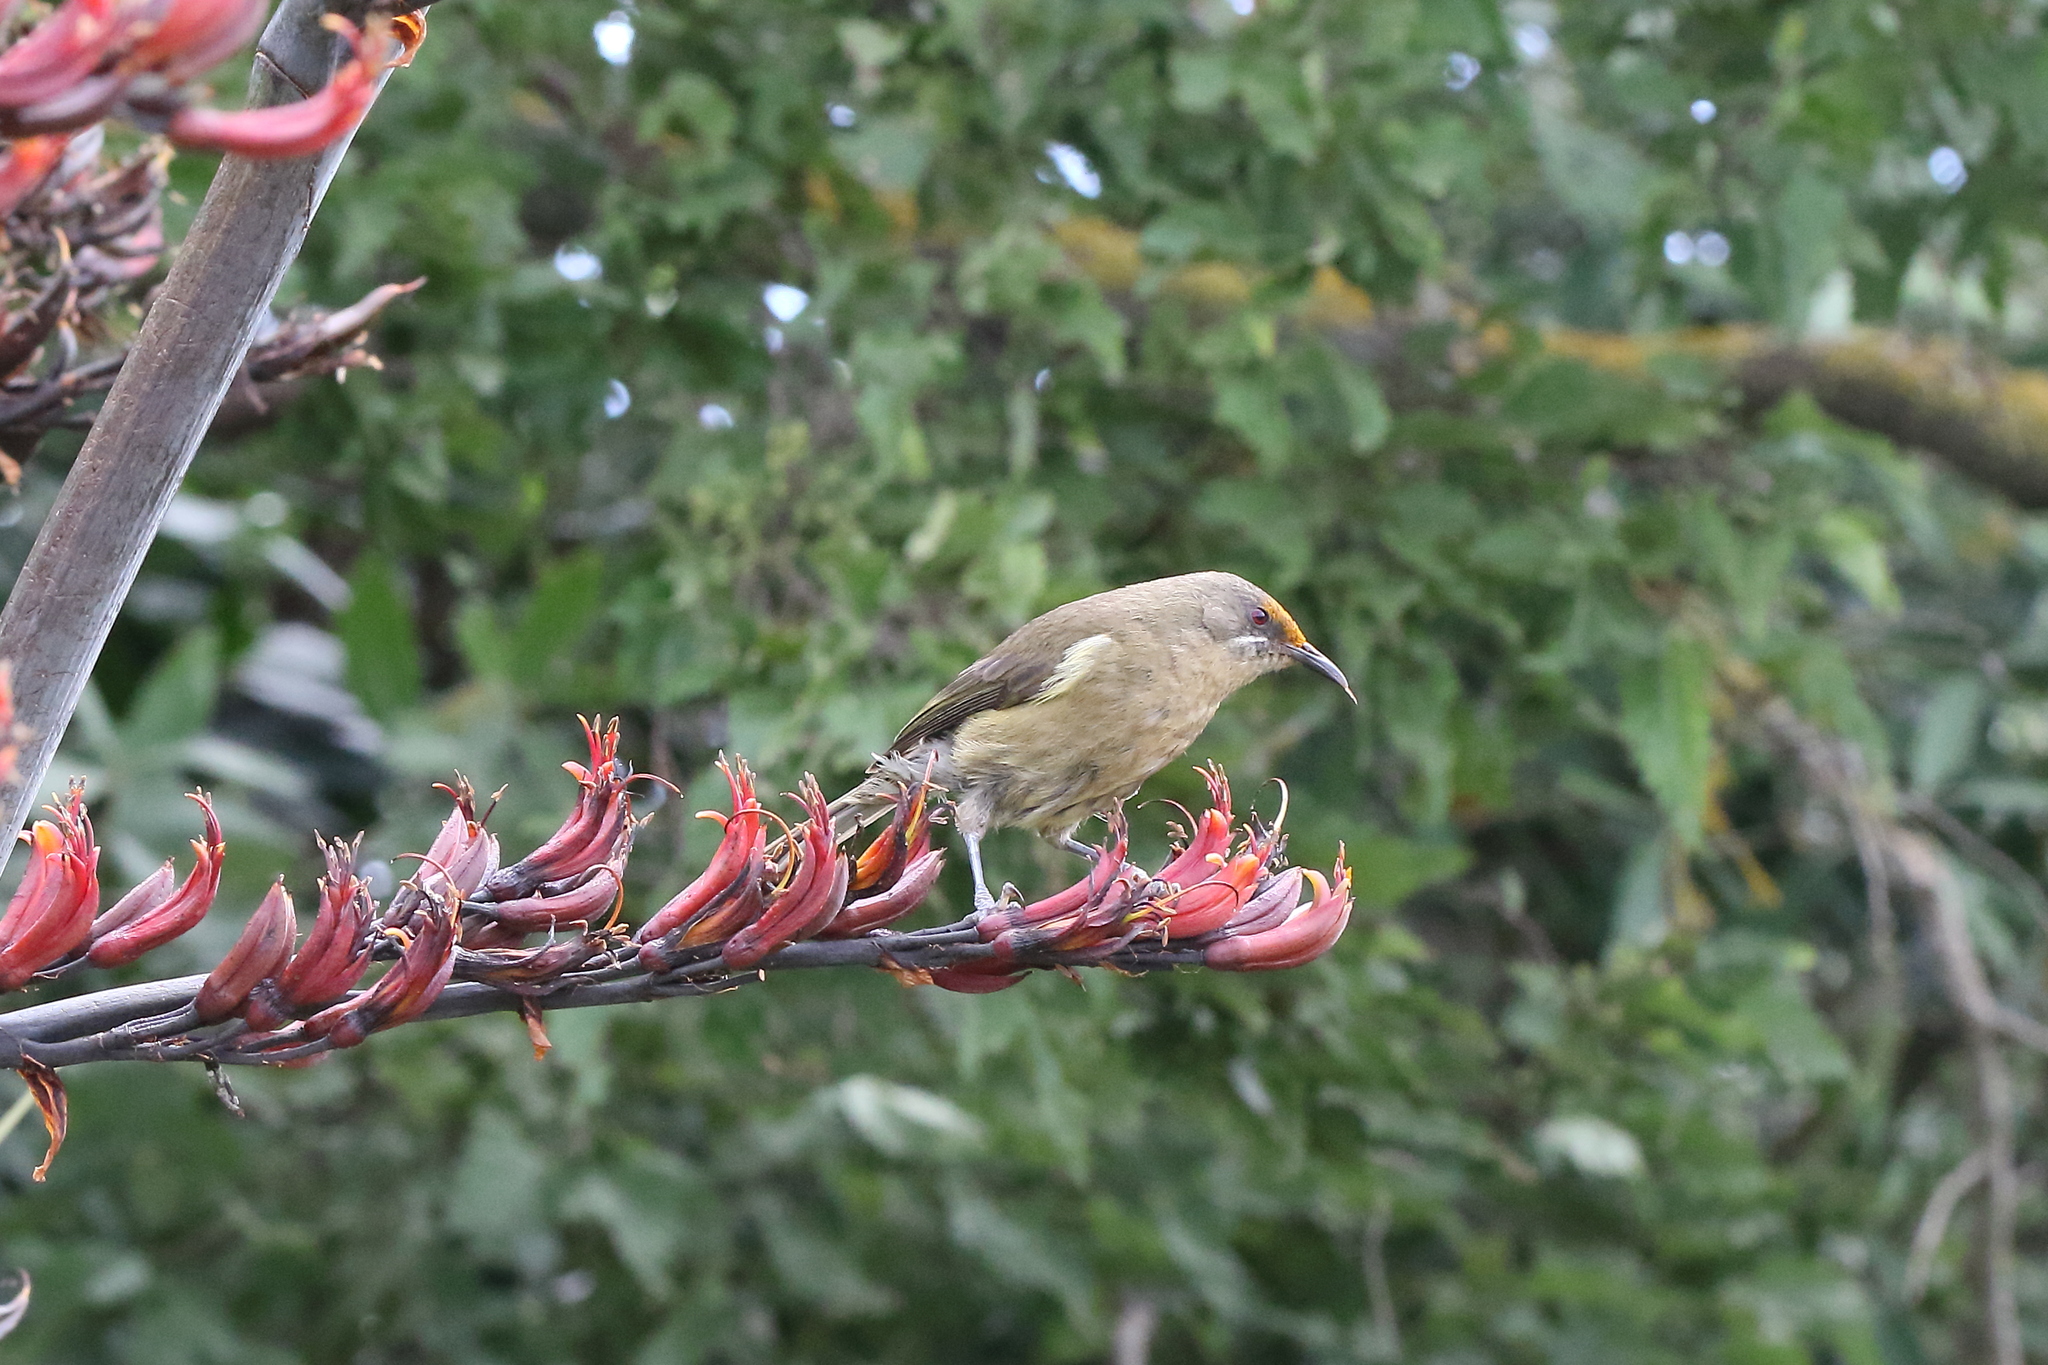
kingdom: Animalia
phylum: Chordata
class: Aves
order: Passeriformes
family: Meliphagidae
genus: Anthornis
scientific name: Anthornis melanura
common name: New zealand bellbird
